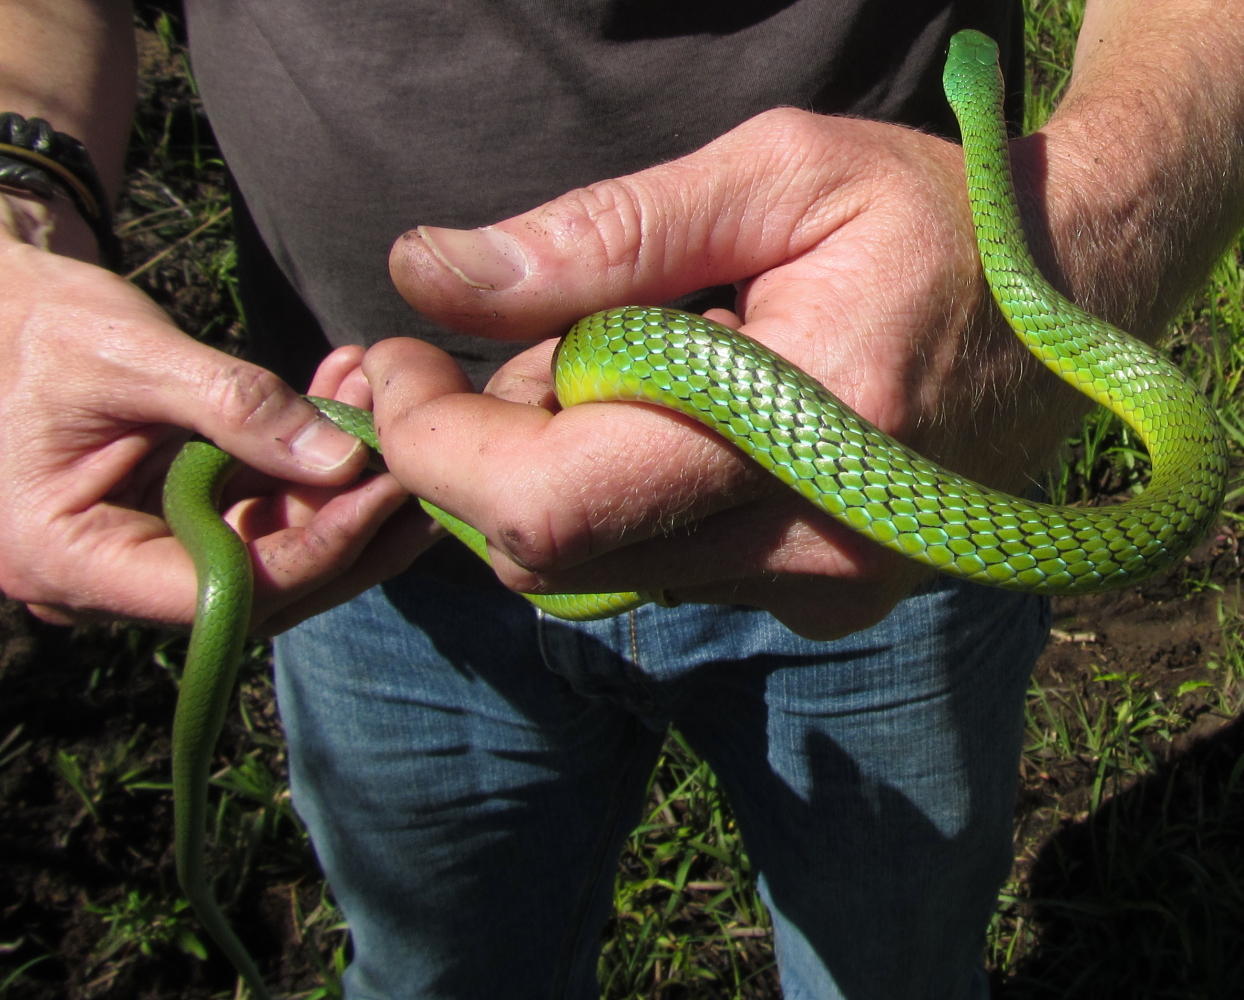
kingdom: Animalia
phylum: Chordata
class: Squamata
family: Colubridae
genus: Philothamnus
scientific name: Philothamnus occidentalis
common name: Western natal green snake
